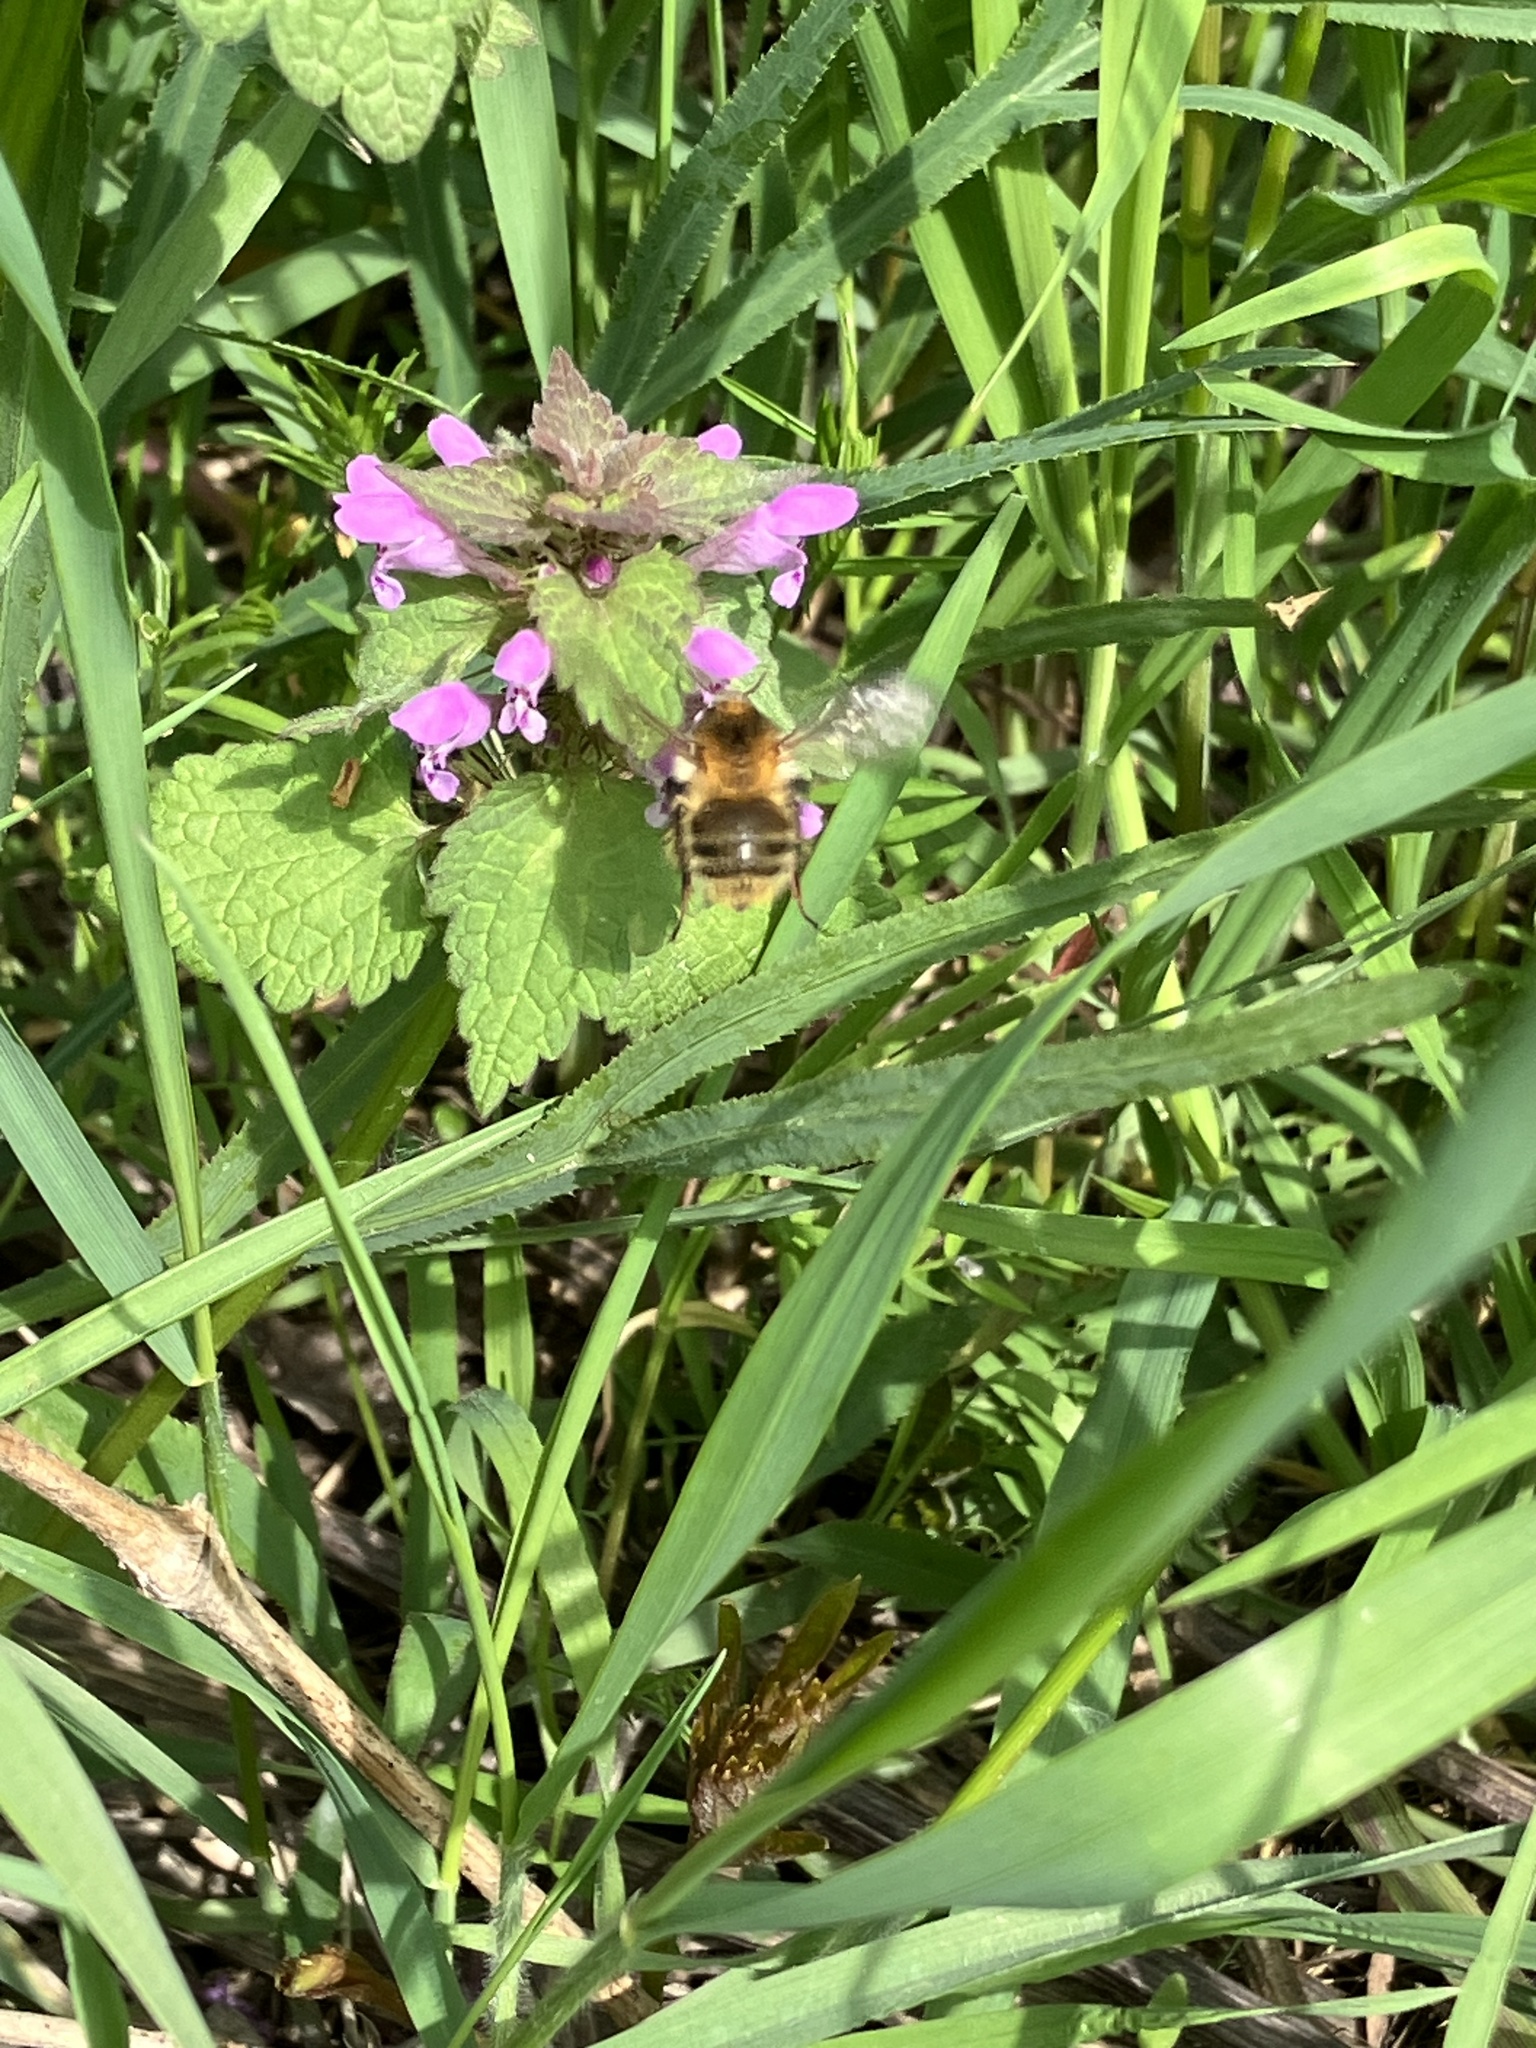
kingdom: Animalia
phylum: Arthropoda
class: Insecta
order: Hymenoptera
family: Apidae
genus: Bombus
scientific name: Bombus pascuorum
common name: Common carder bee
